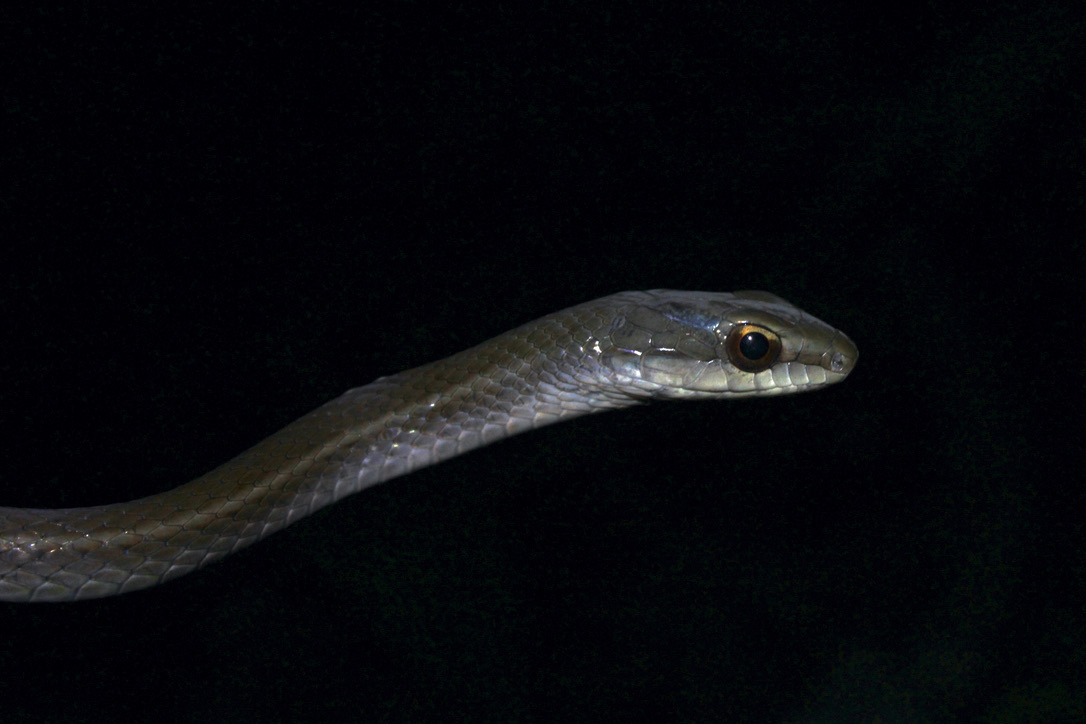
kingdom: Animalia
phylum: Chordata
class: Squamata
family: Colubridae
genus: Mastigodryas
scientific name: Mastigodryas boddaerti
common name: Boddaert's tropical racer
